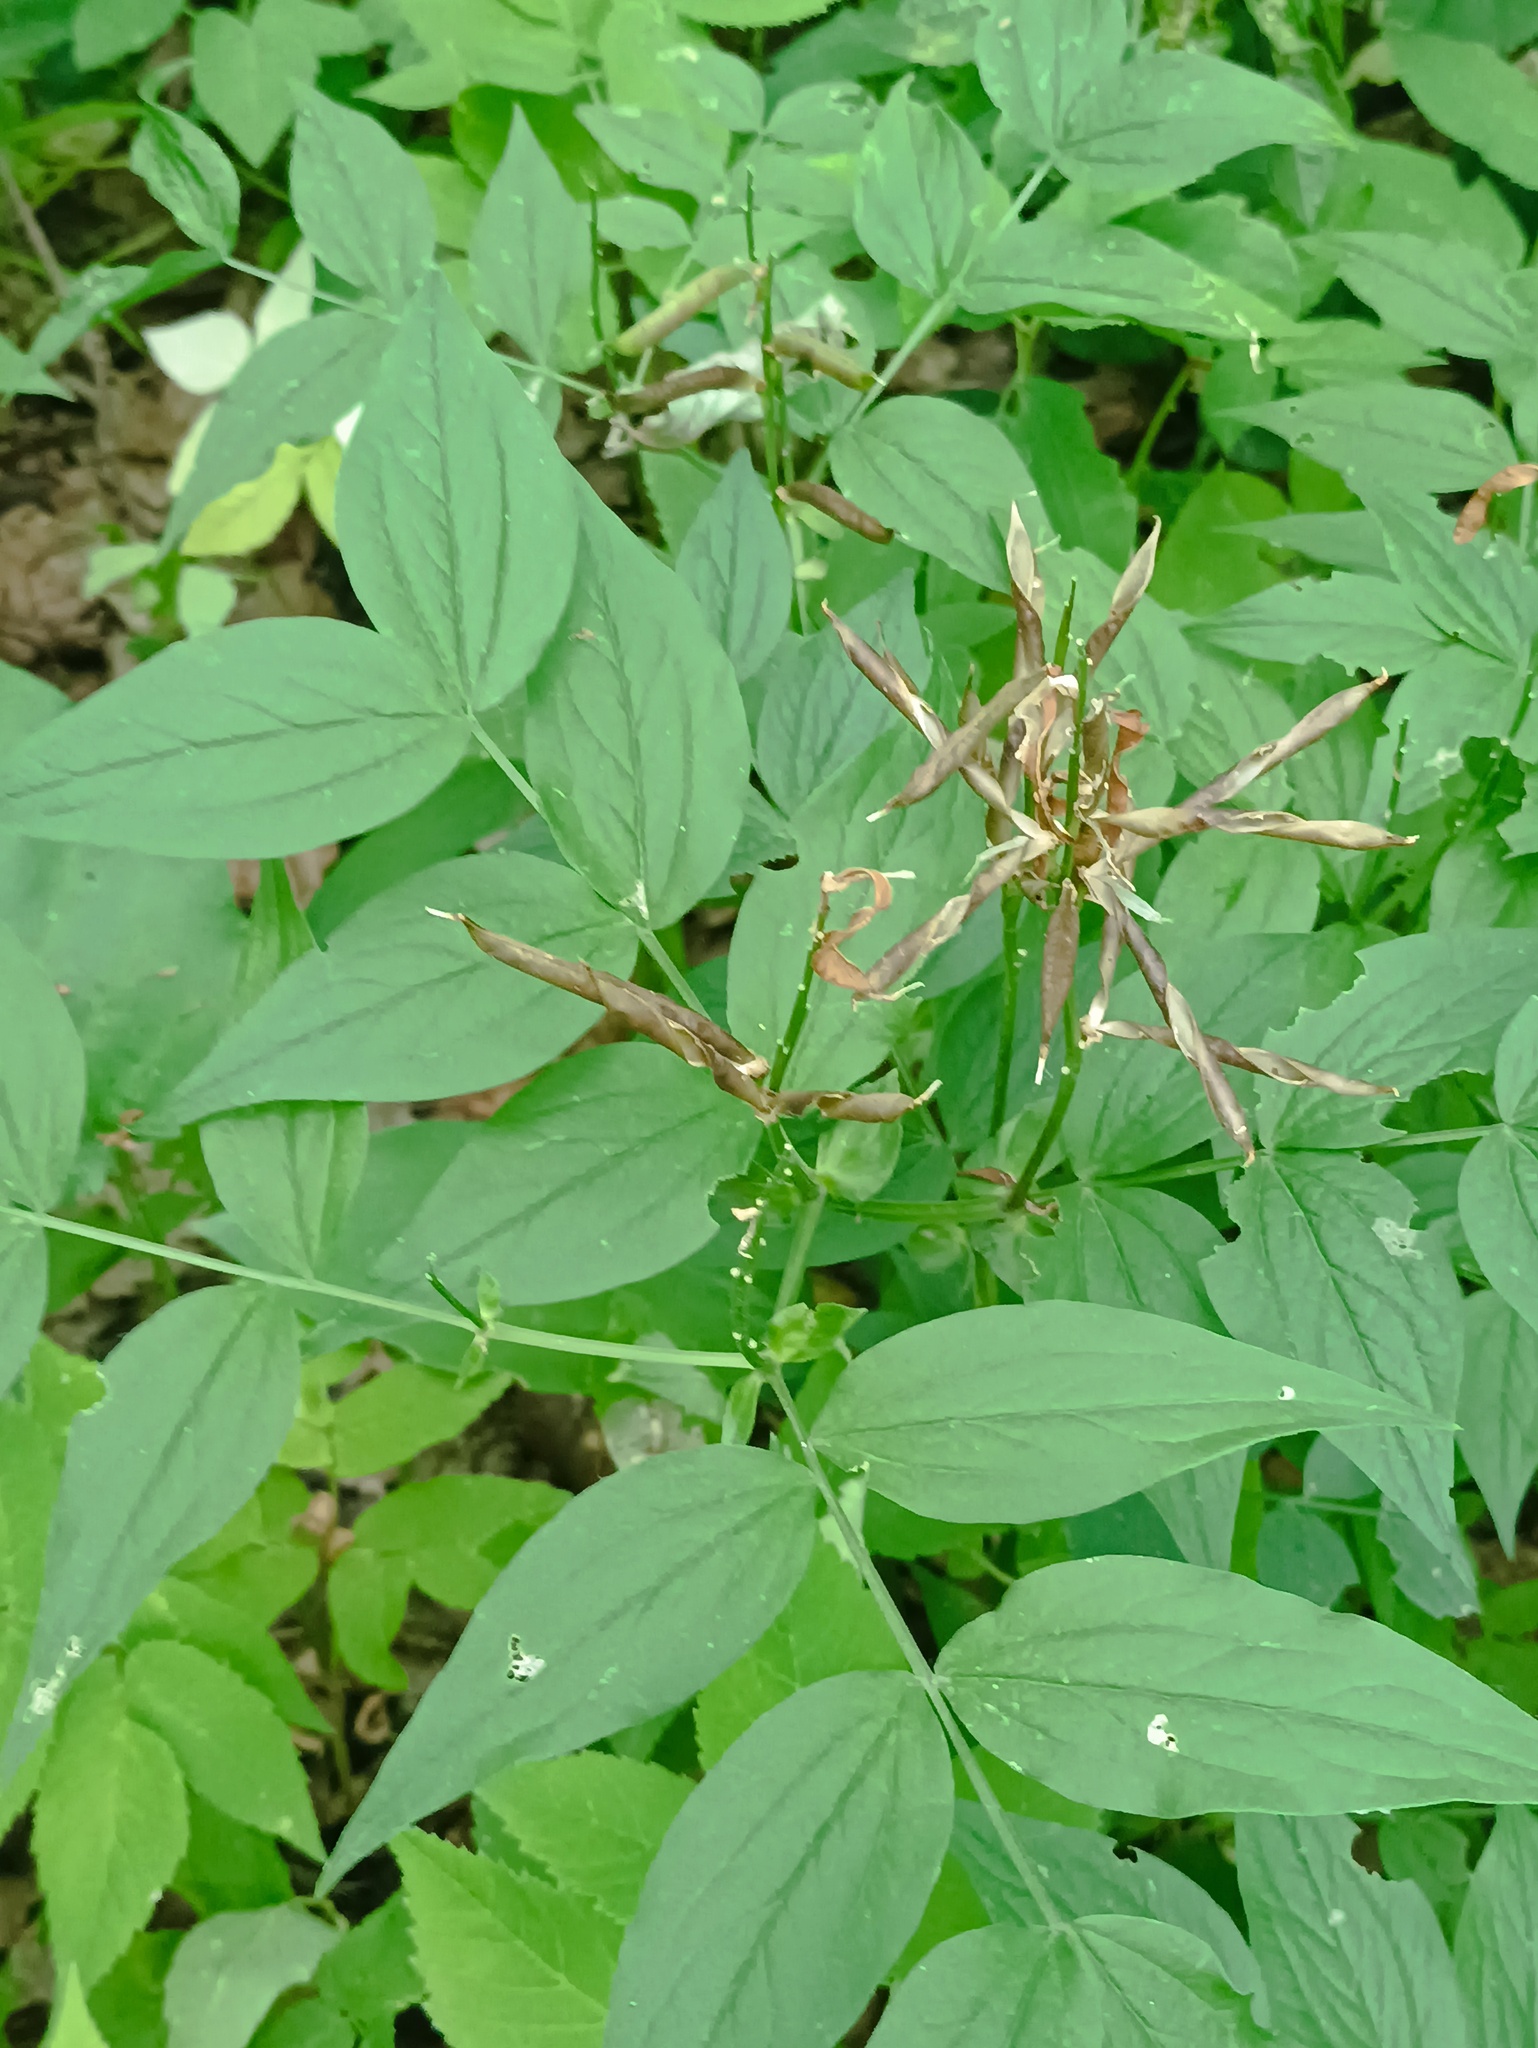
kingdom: Plantae
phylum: Tracheophyta
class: Magnoliopsida
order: Fabales
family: Fabaceae
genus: Lathyrus
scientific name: Lathyrus vernus
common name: Spring pea
